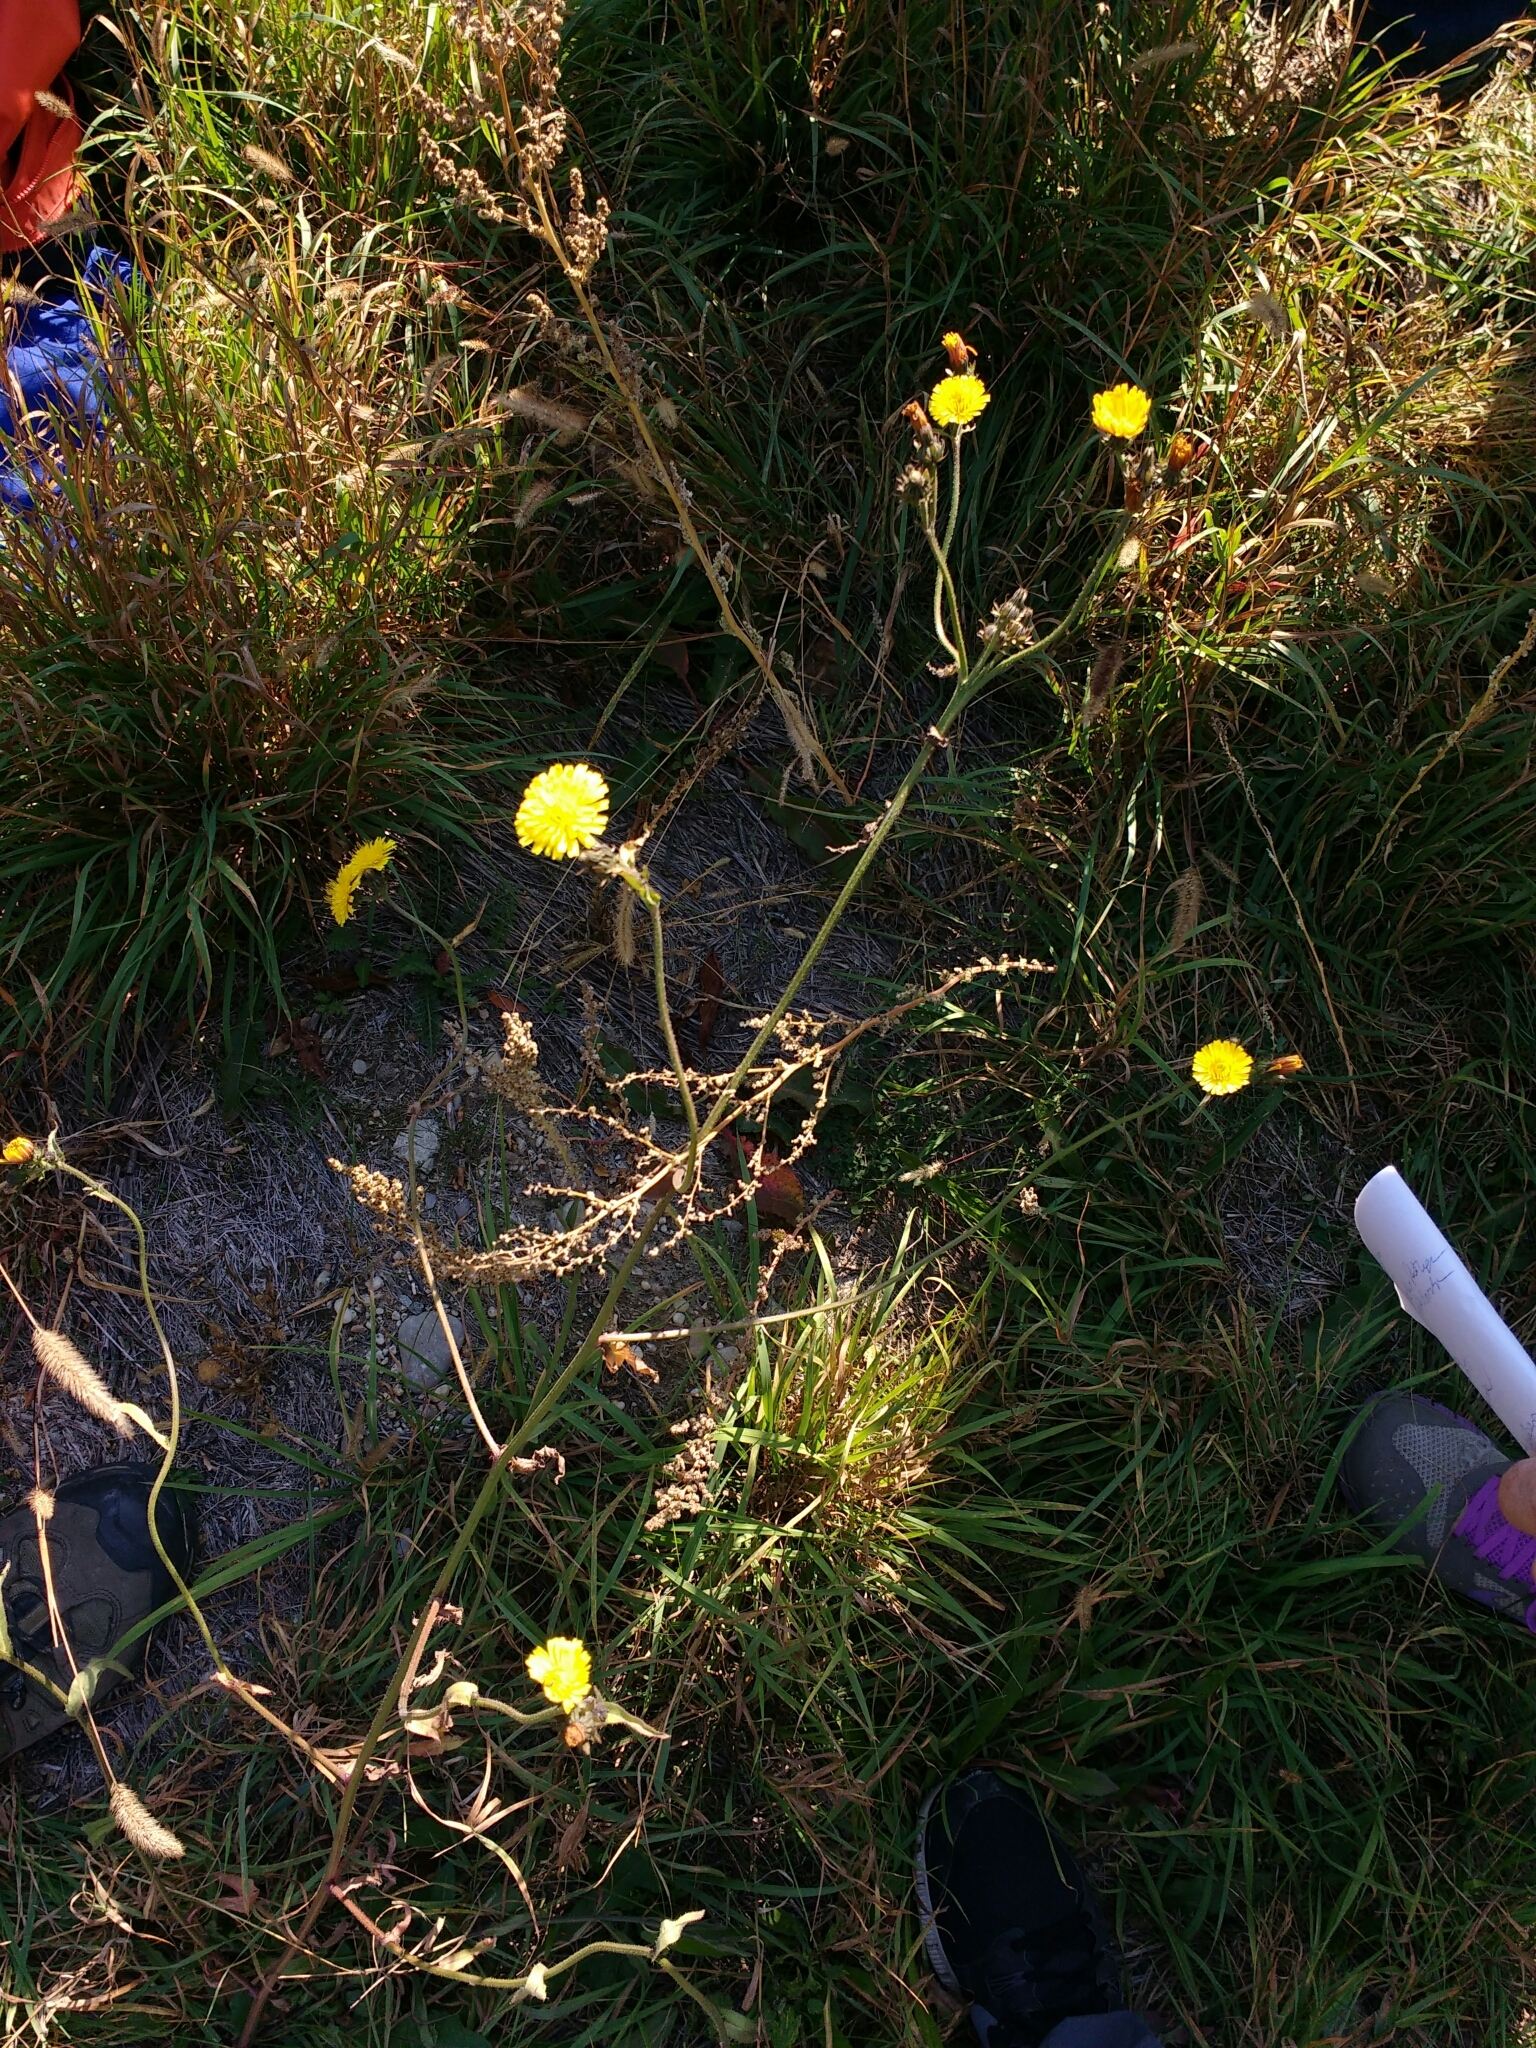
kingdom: Plantae
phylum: Tracheophyta
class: Magnoliopsida
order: Asterales
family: Asteraceae
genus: Picris
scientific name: Picris hieracioides
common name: Hawkweed oxtongue
